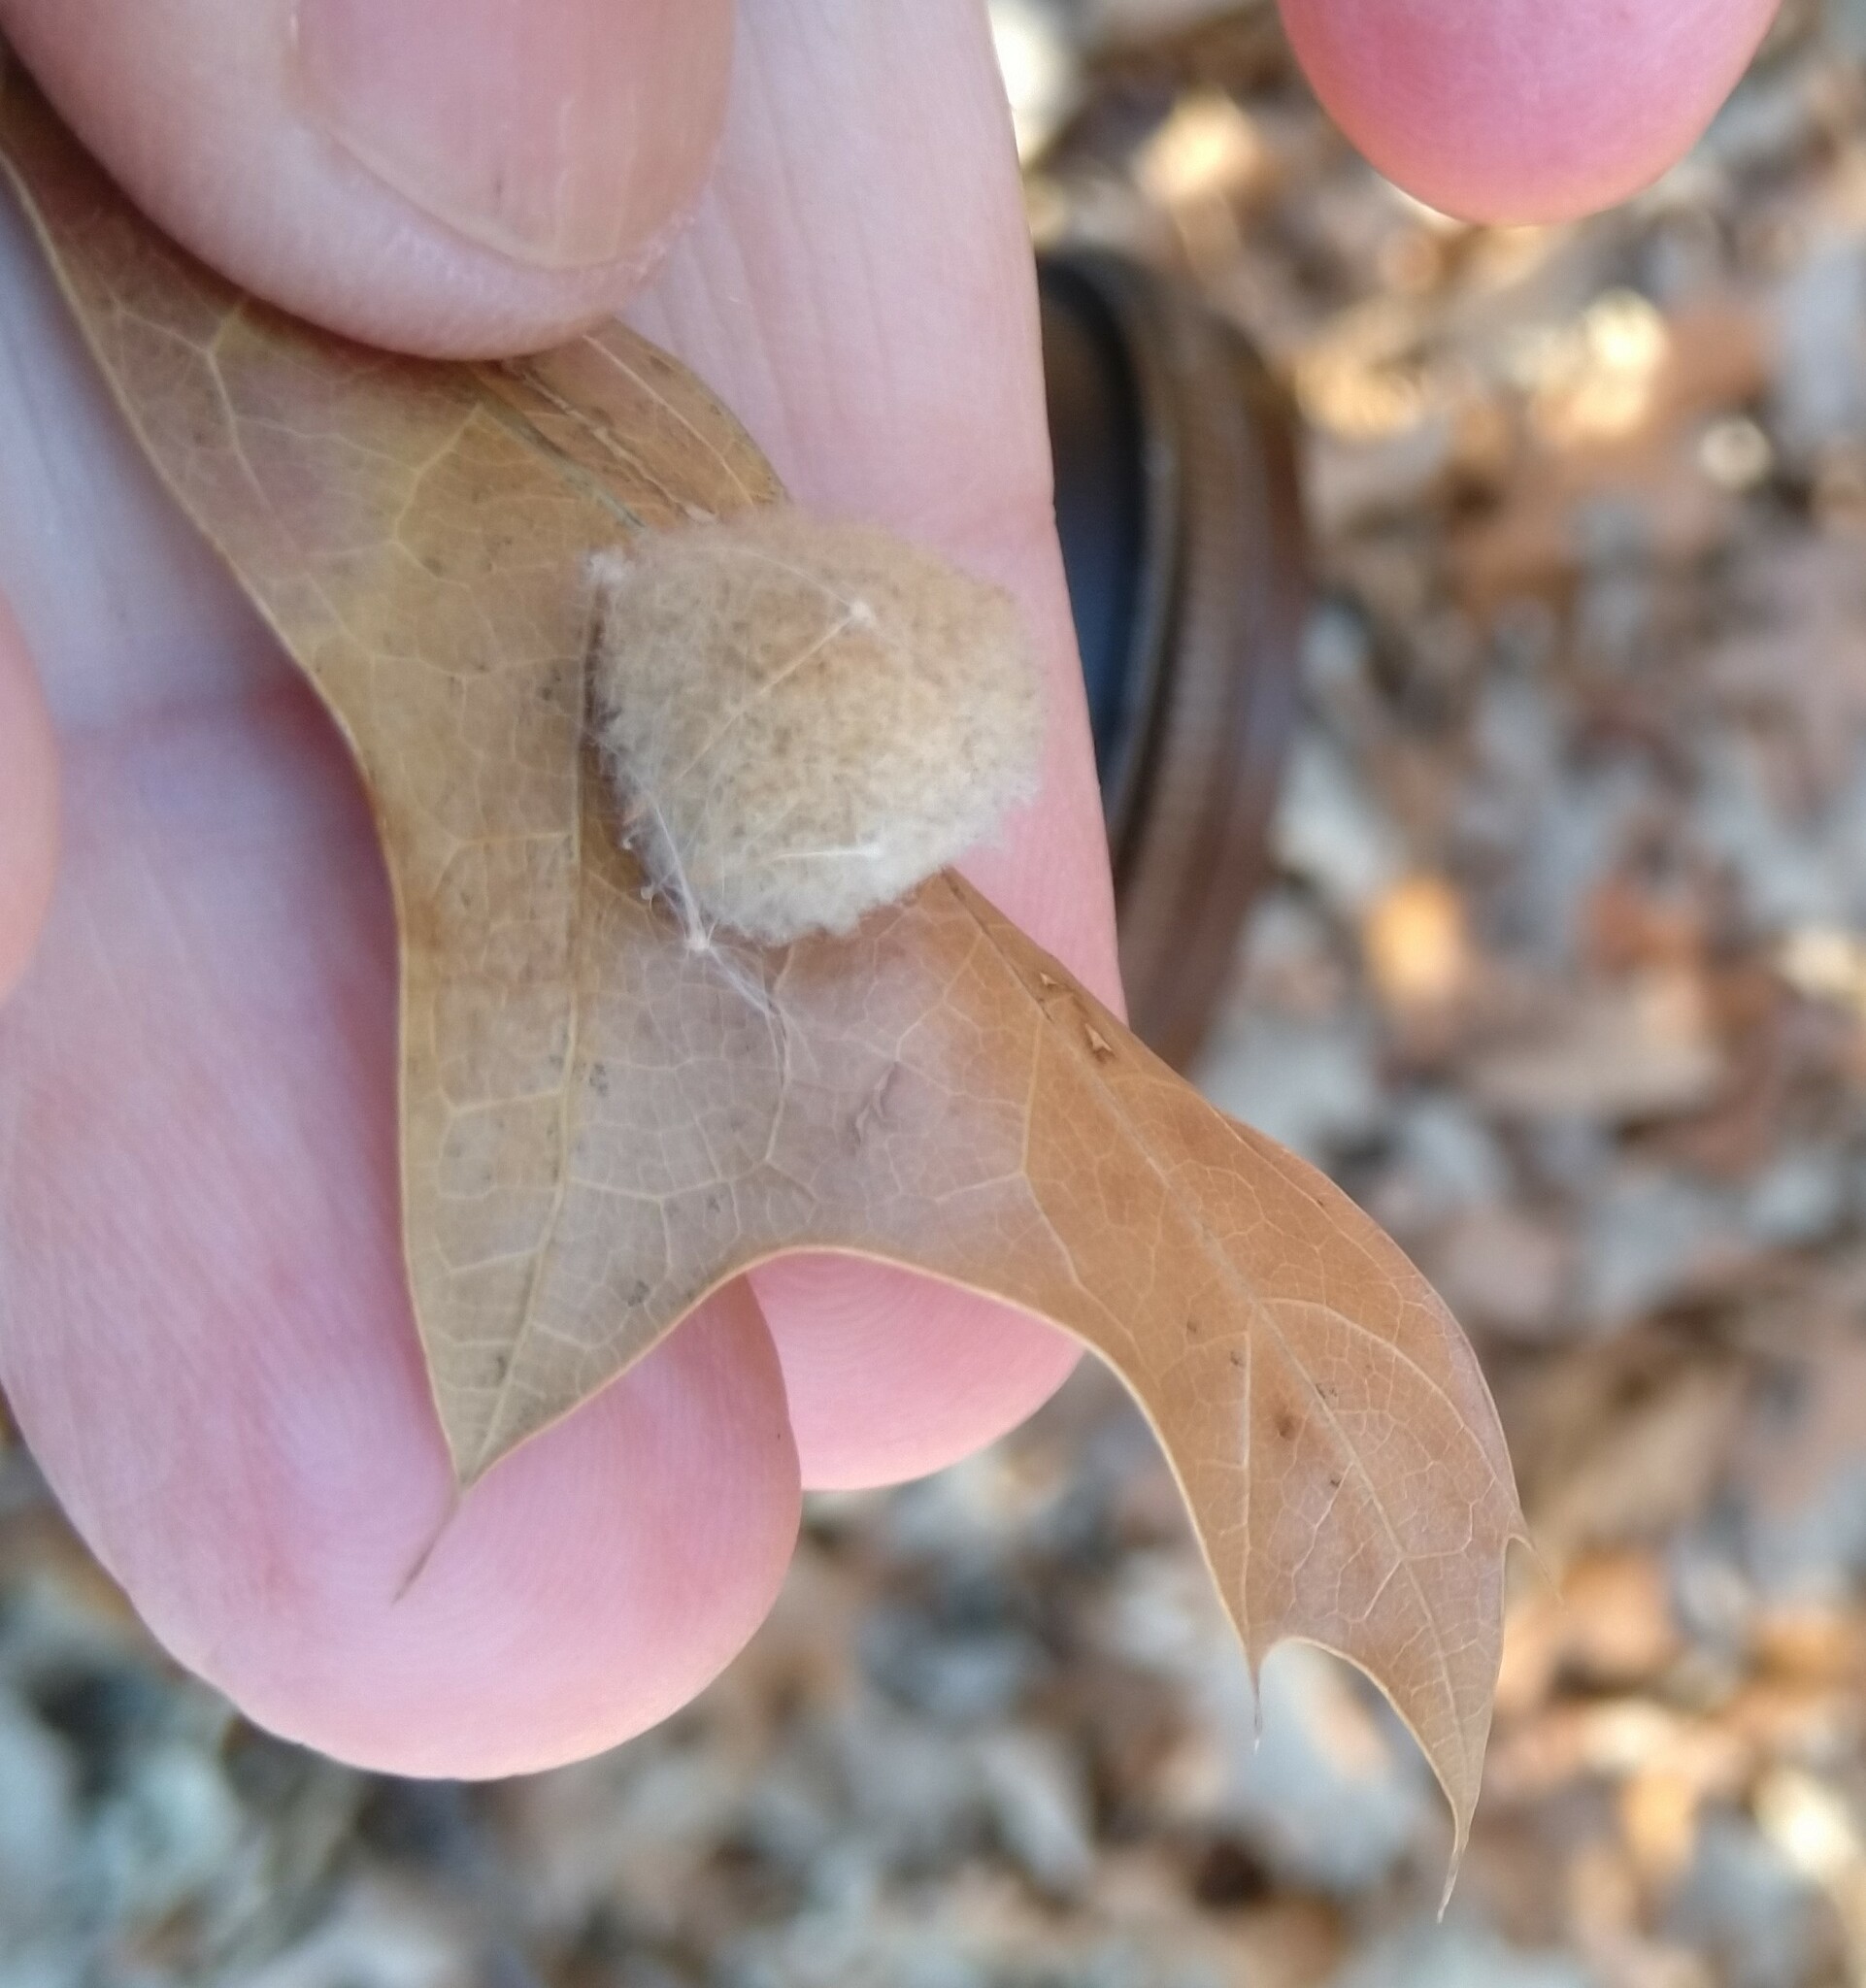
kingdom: Animalia
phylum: Arthropoda
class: Insecta
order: Hymenoptera
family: Cynipidae
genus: Callirhytis
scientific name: Callirhytis
